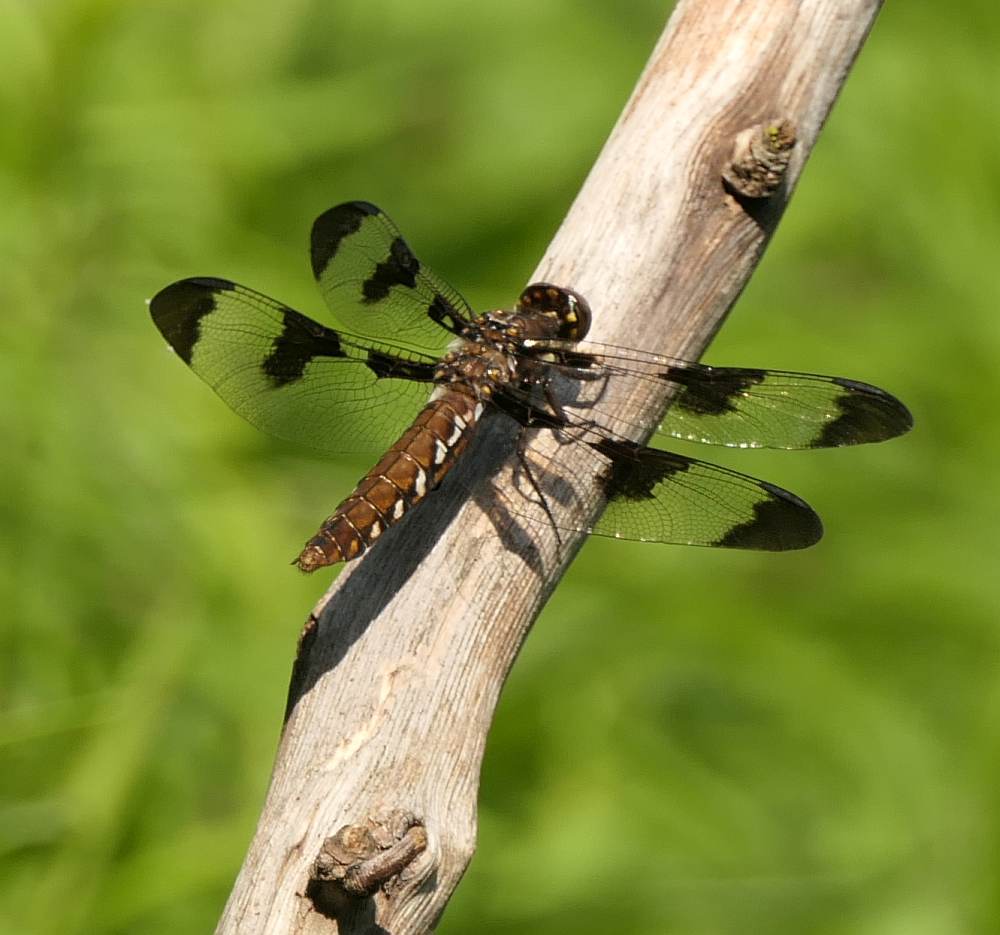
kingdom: Animalia
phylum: Arthropoda
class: Insecta
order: Odonata
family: Libellulidae
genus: Plathemis
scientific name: Plathemis lydia
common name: Common whitetail
